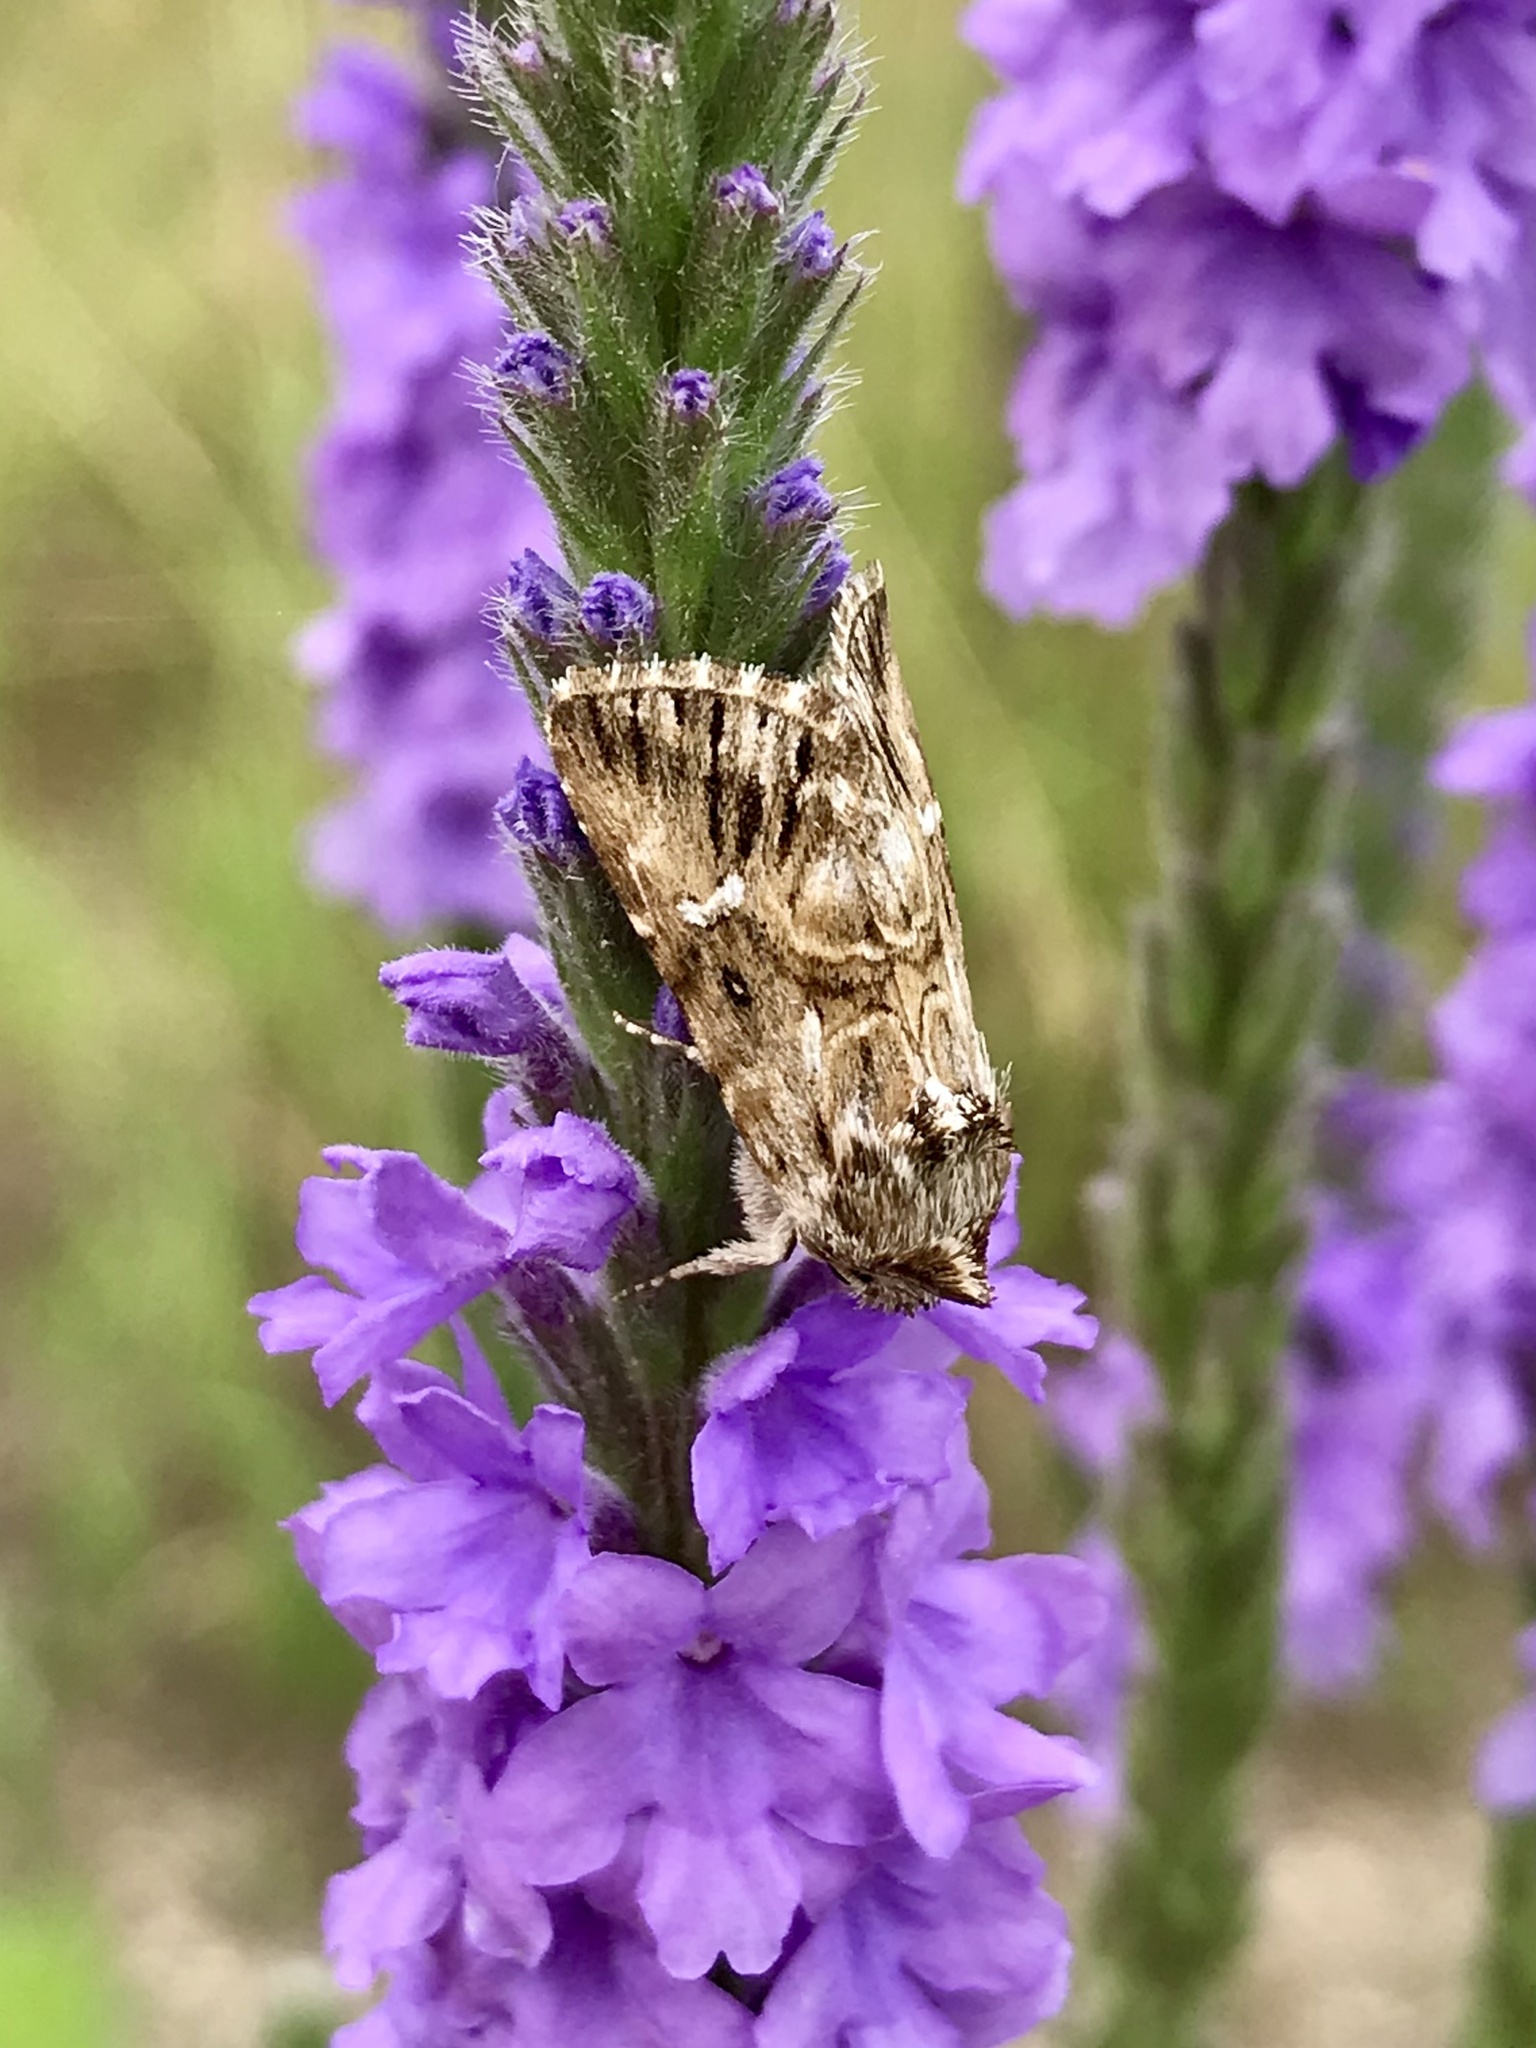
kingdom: Animalia
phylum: Arthropoda
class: Insecta
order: Lepidoptera
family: Noctuidae
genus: Calophasia
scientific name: Calophasia lunula
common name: Toadflax brocade
